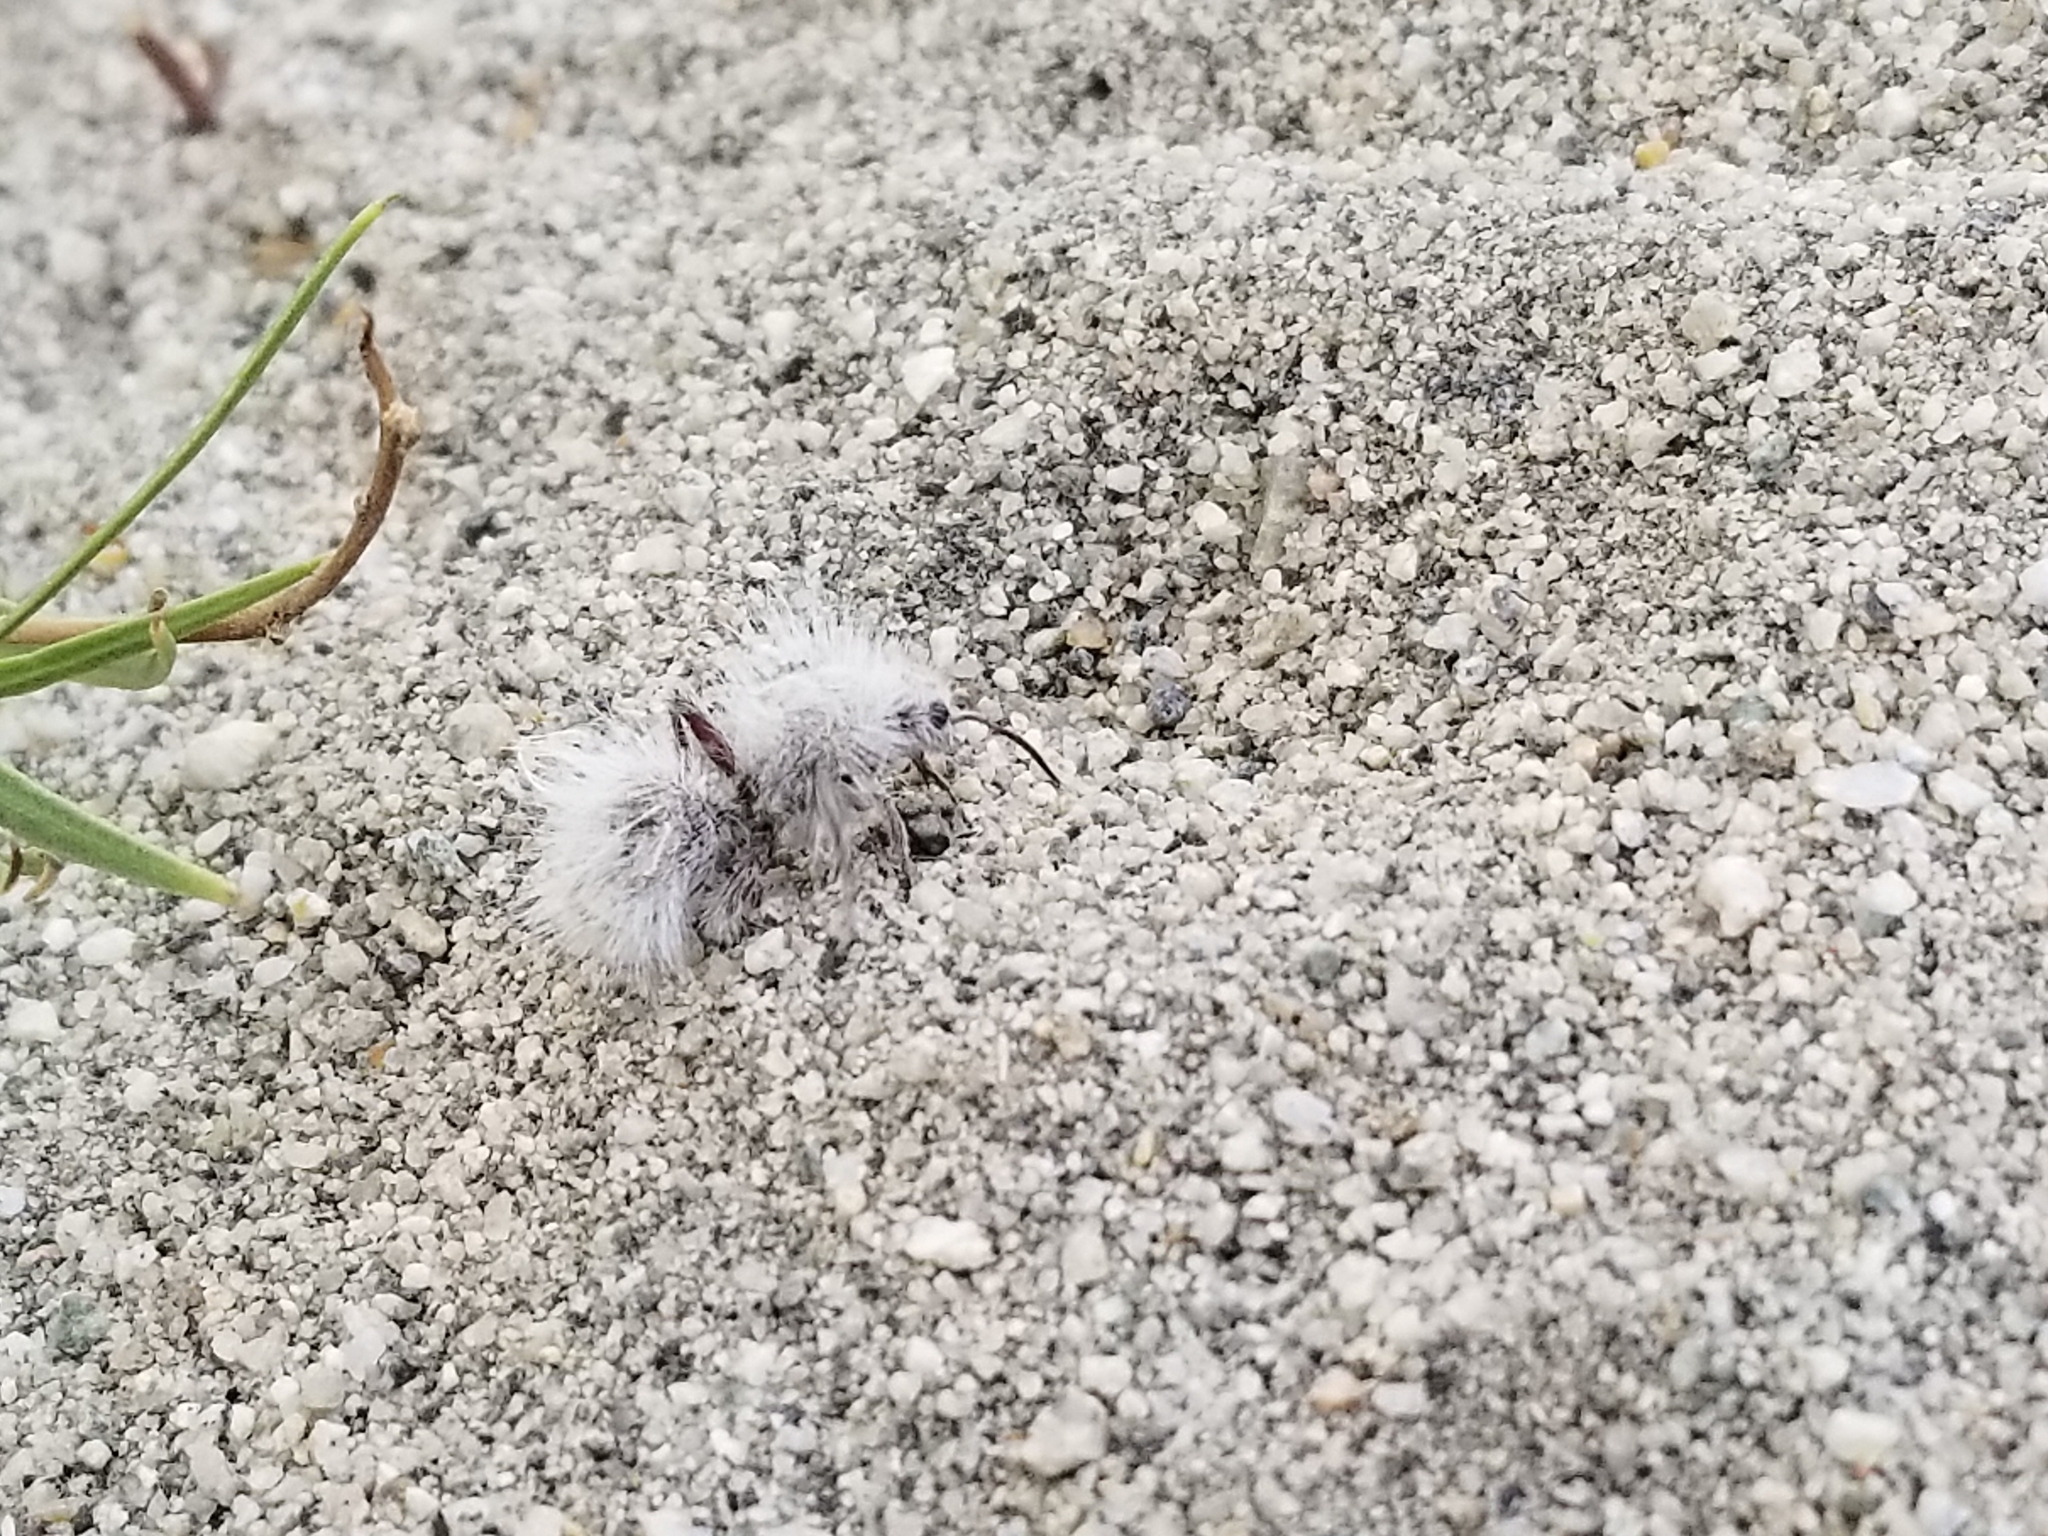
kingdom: Animalia
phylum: Arthropoda
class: Insecta
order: Hymenoptera
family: Mutillidae
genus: Dasymutilla
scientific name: Dasymutilla gloriosa
